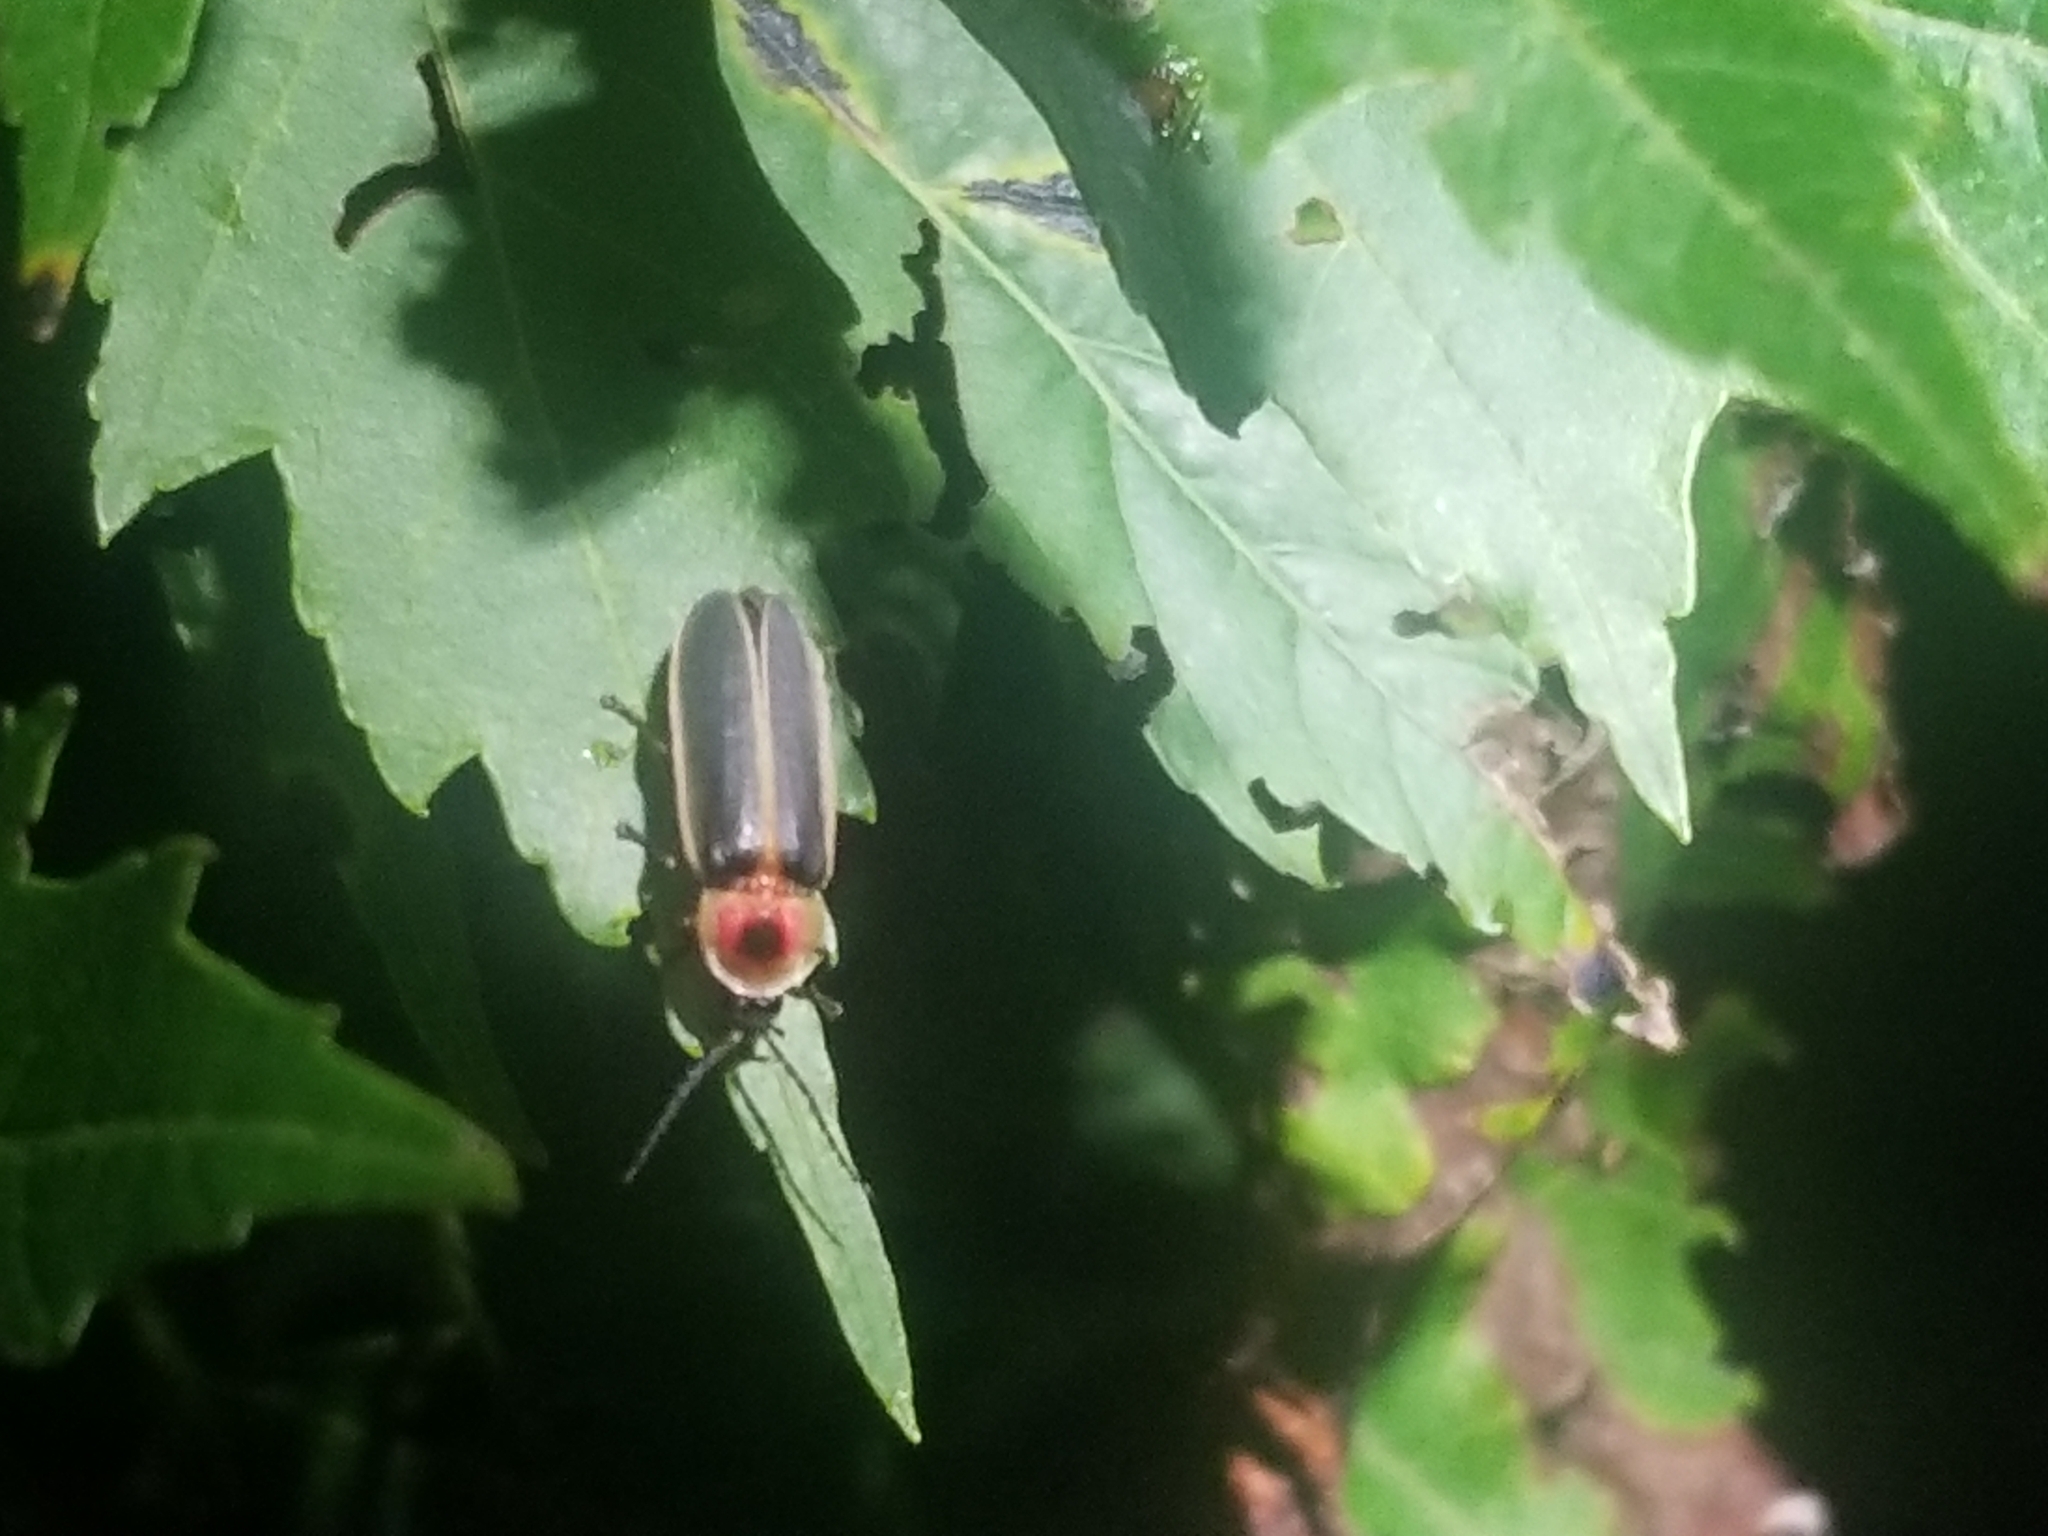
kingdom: Animalia
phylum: Arthropoda
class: Insecta
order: Coleoptera
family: Lampyridae
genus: Photinus
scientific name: Photinus pyralis
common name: Big dipper firefly
